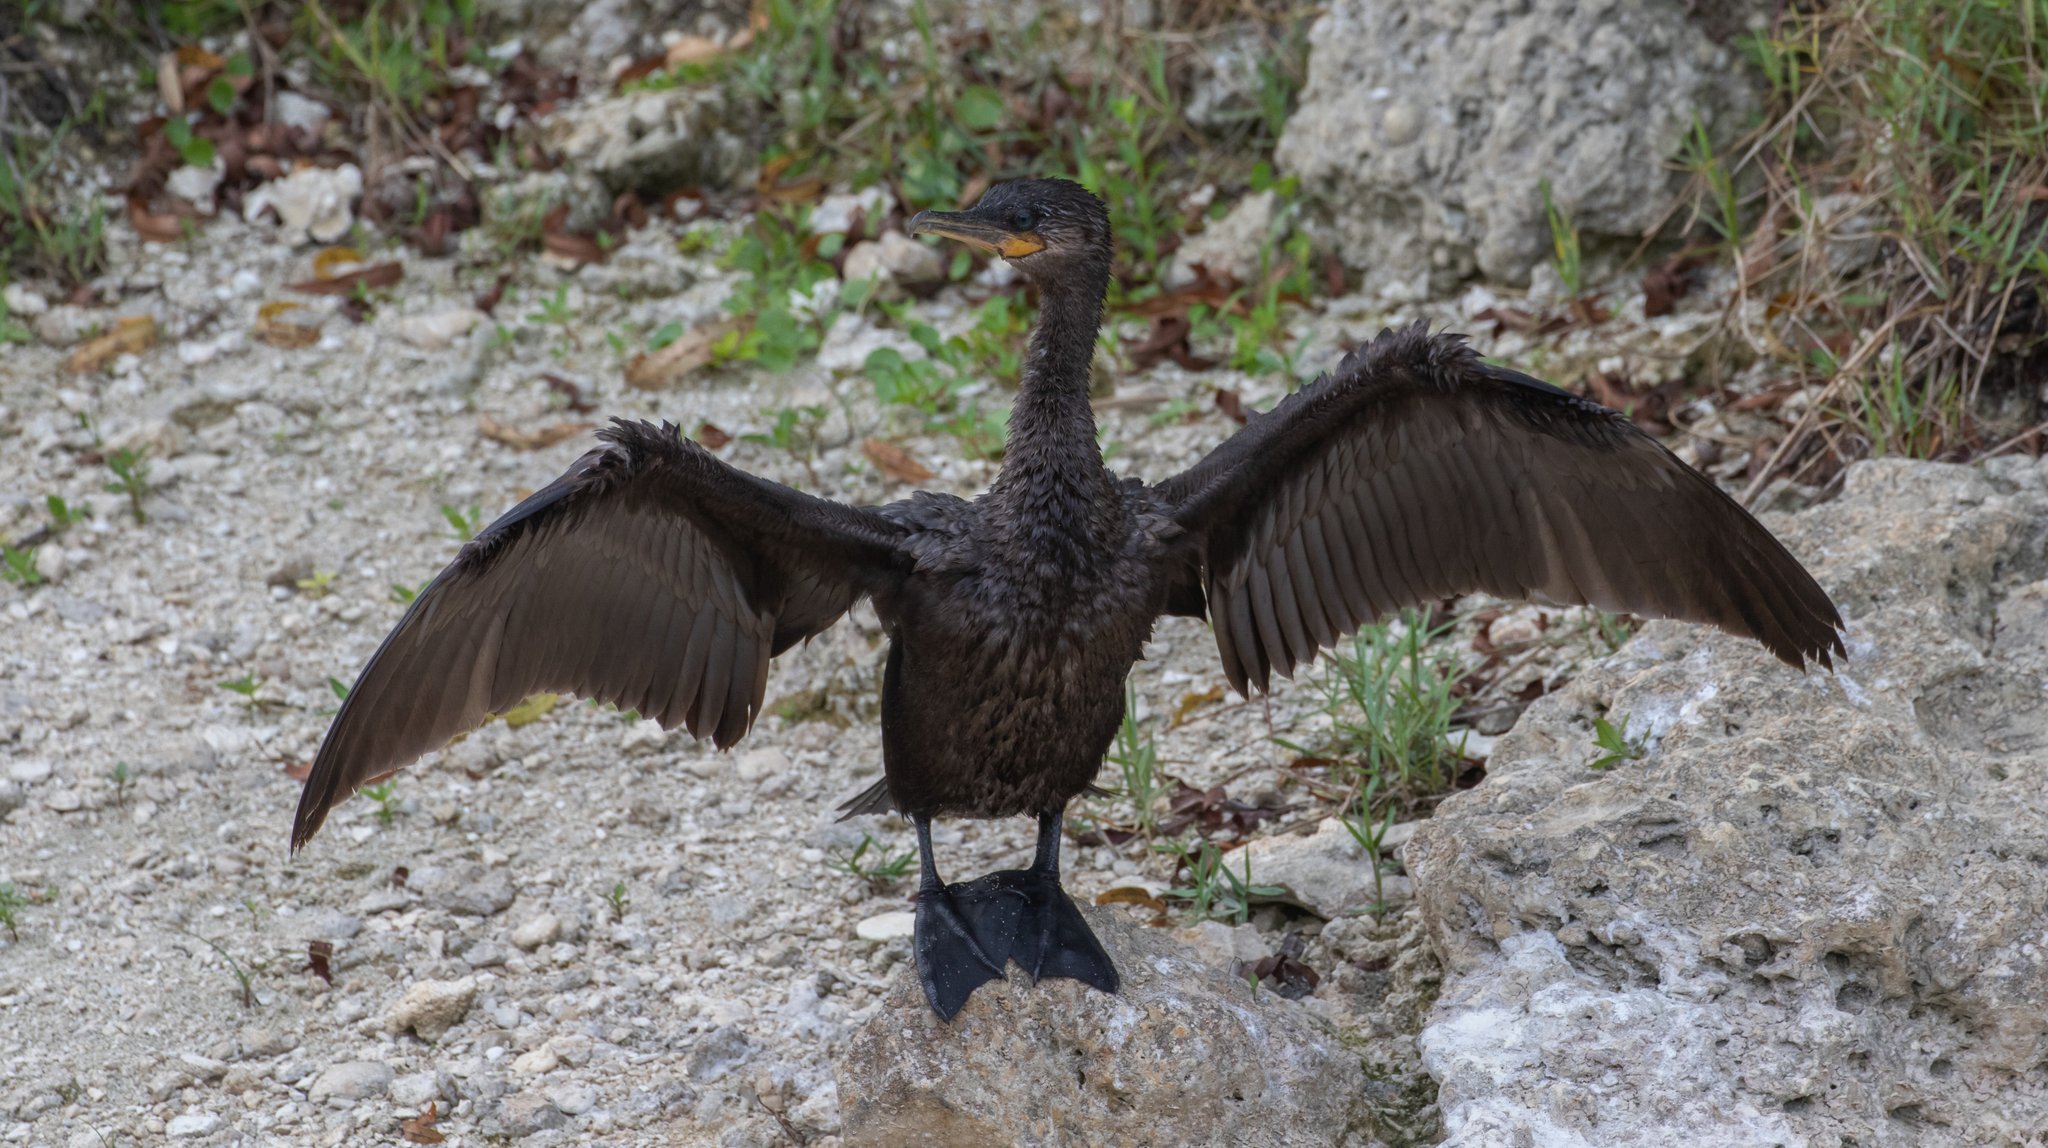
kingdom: Animalia
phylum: Chordata
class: Aves
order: Suliformes
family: Phalacrocoracidae
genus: Phalacrocorax
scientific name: Phalacrocorax brasilianus
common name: Neotropic cormorant
